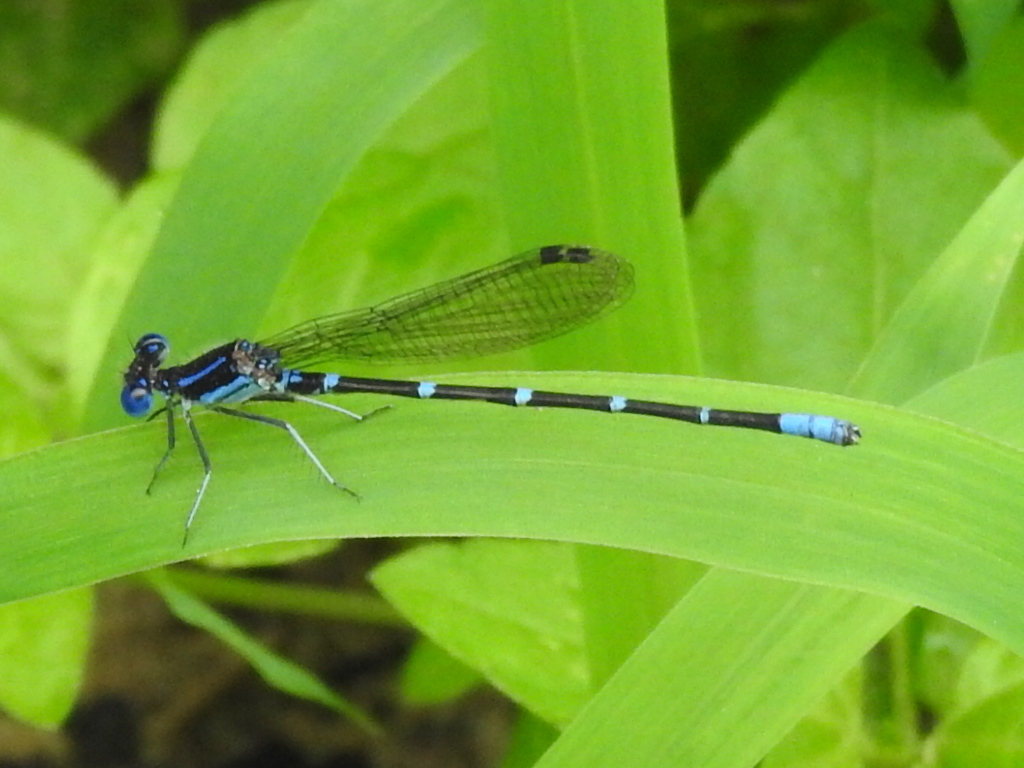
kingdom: Animalia
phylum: Arthropoda
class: Insecta
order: Odonata
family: Coenagrionidae
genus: Argia
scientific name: Argia sedula
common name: Blue-ringed dancer
